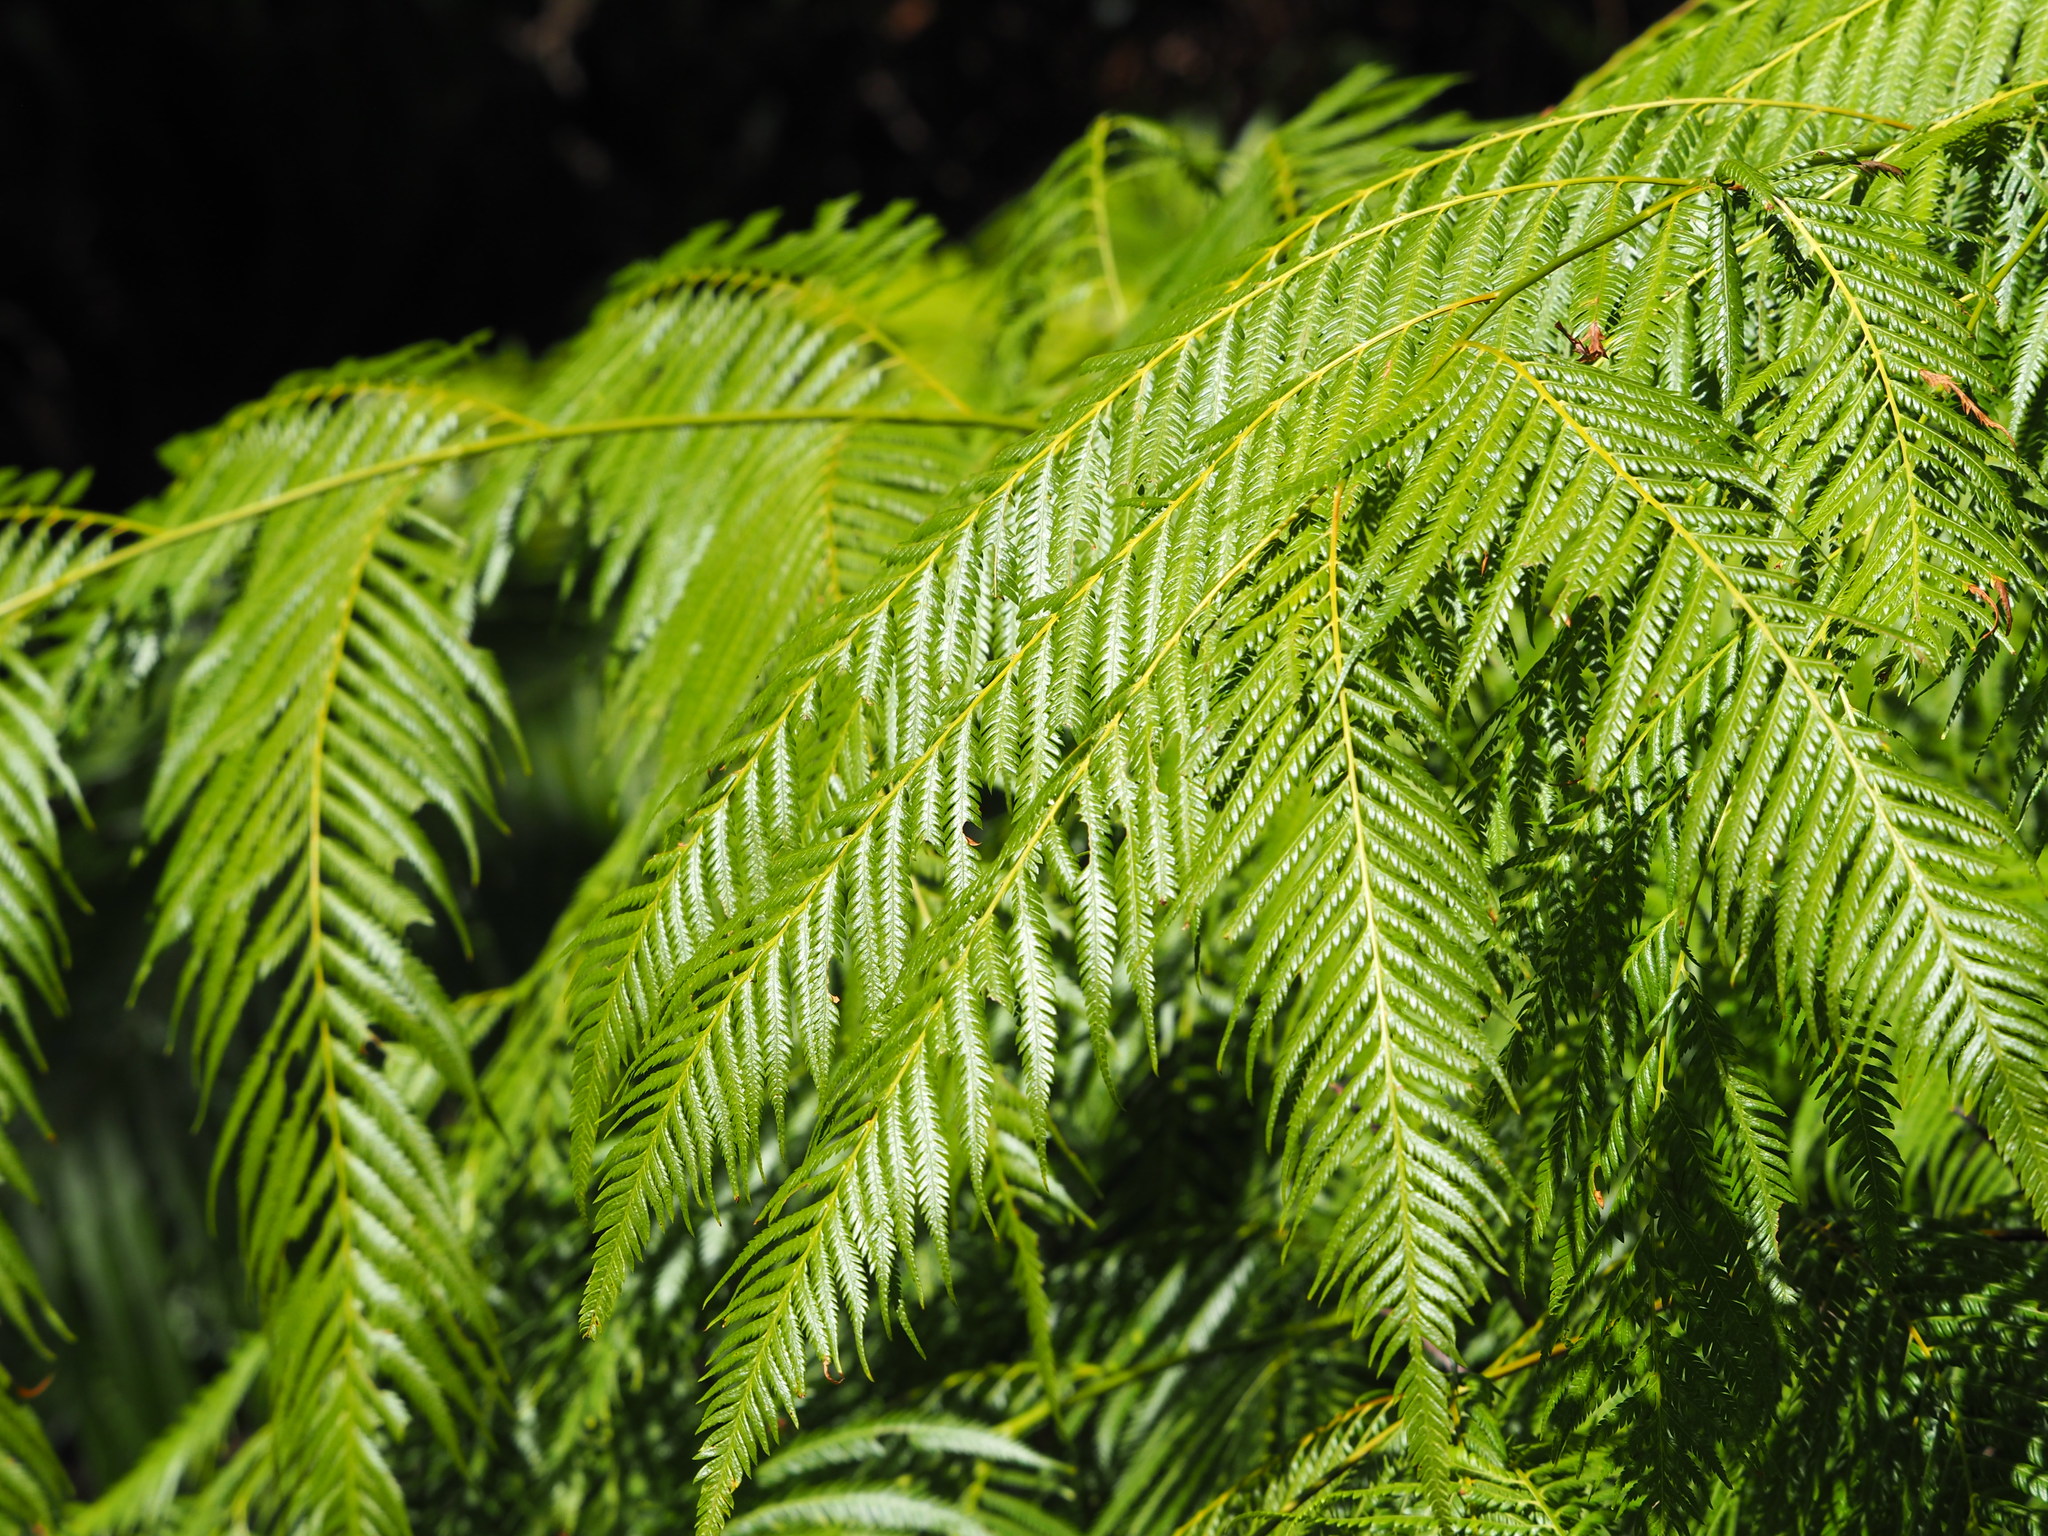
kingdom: Plantae
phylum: Tracheophyta
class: Polypodiopsida
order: Cyatheales
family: Cibotiaceae
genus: Cibotium
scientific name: Cibotium taiwanense
